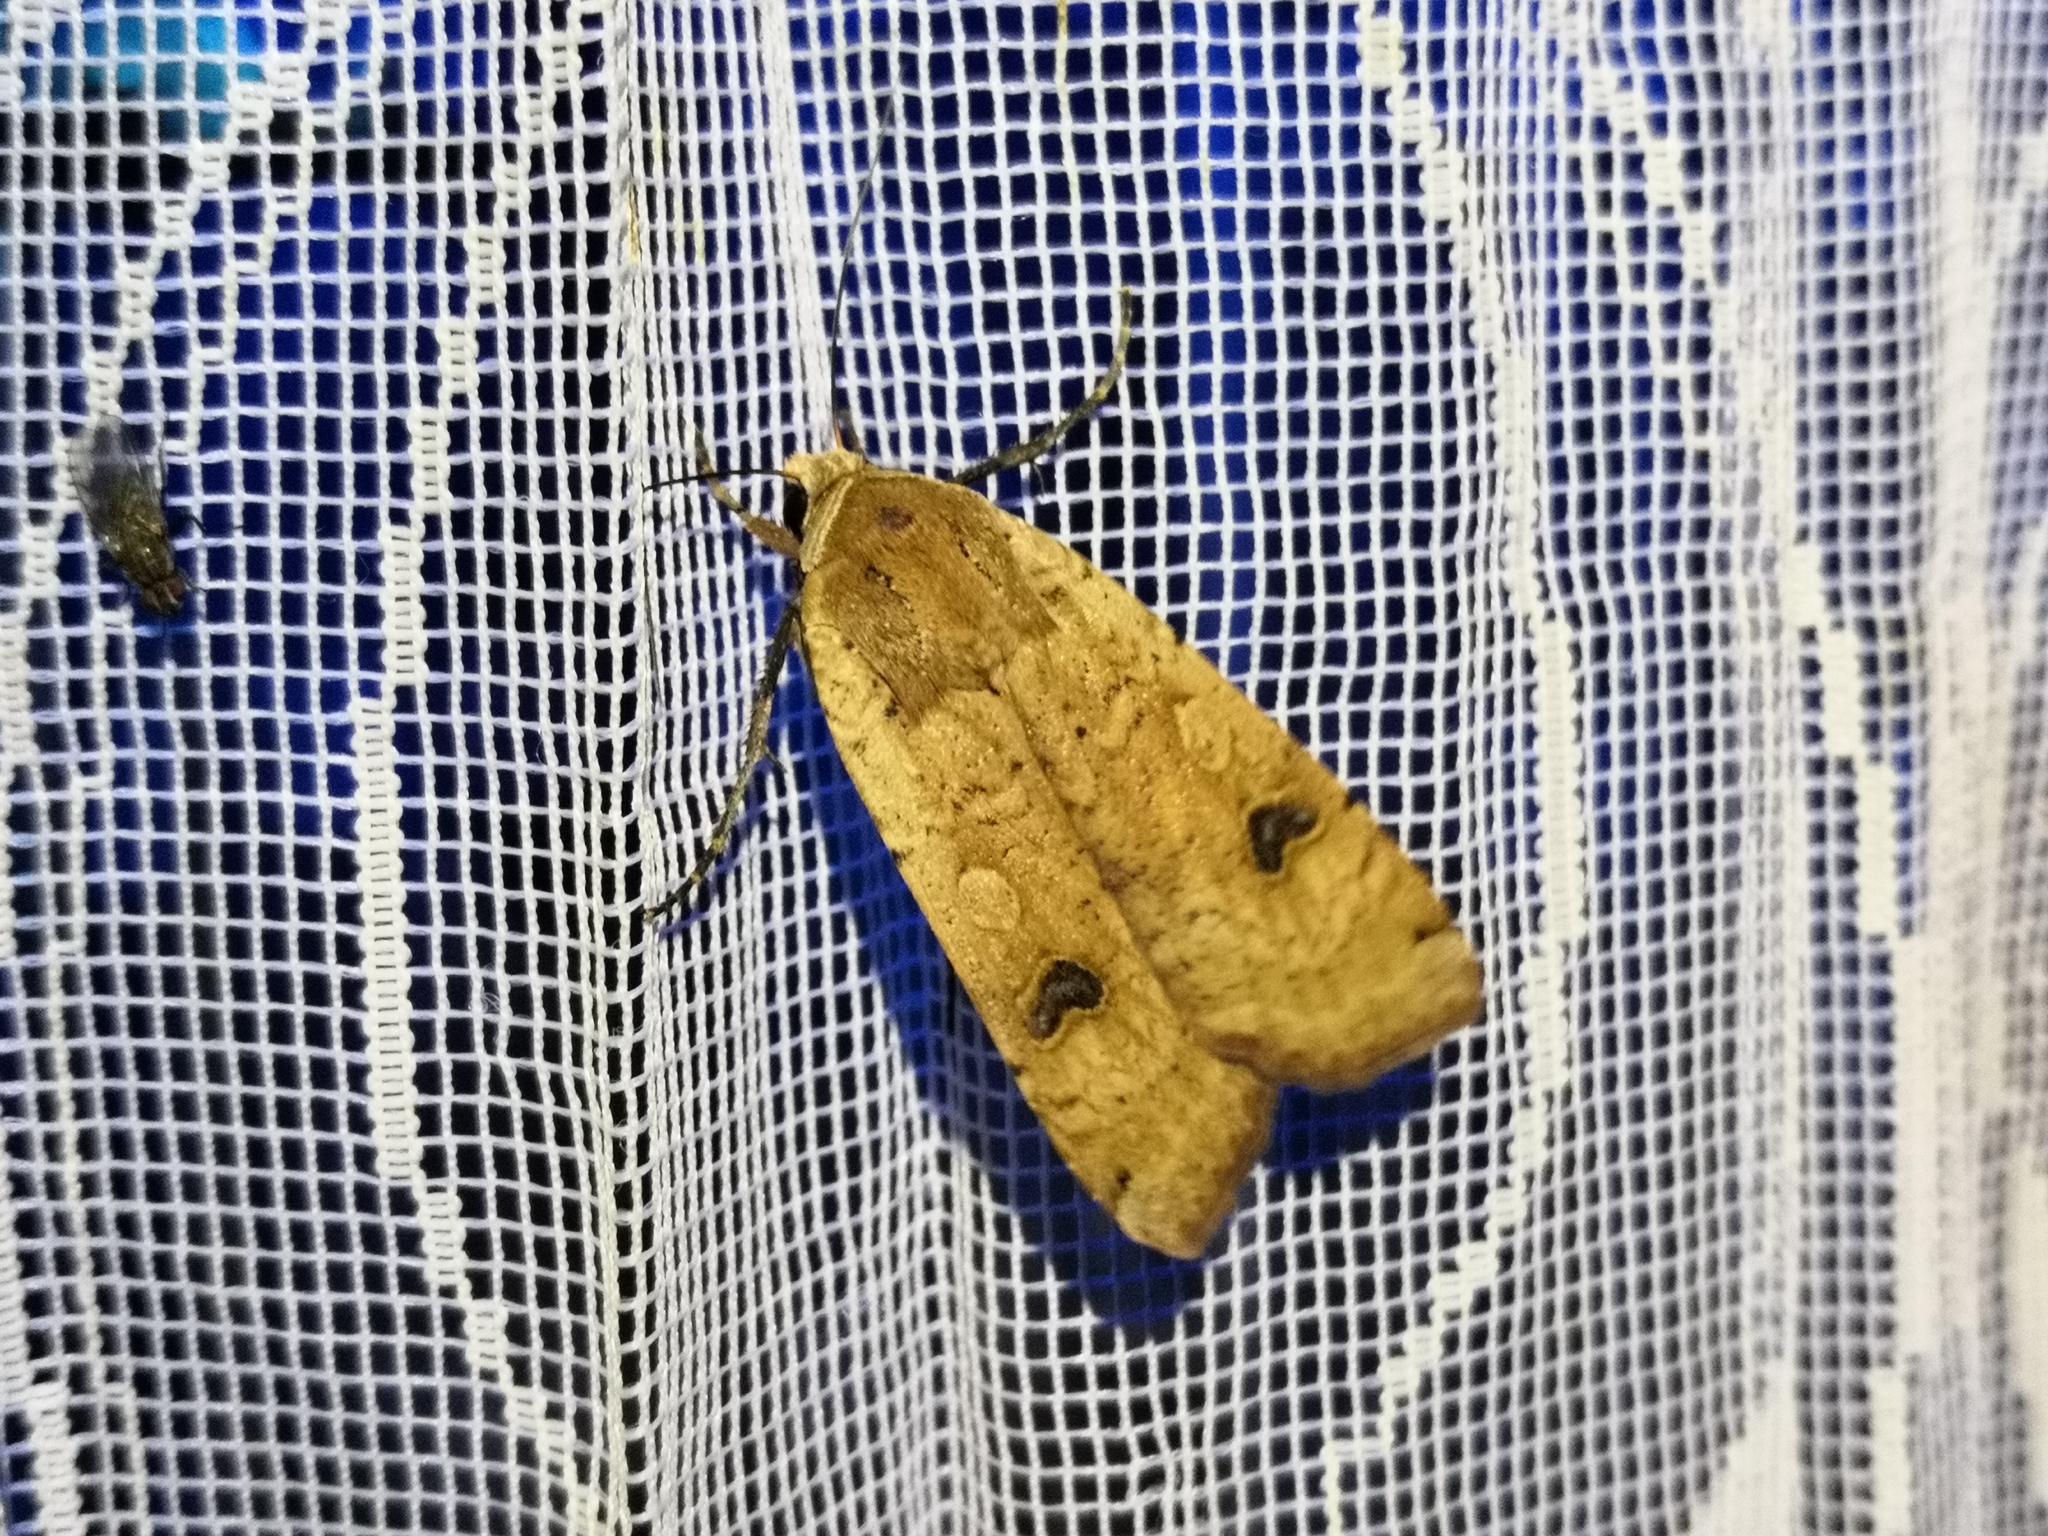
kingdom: Animalia
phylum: Arthropoda
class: Insecta
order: Lepidoptera
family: Noctuidae
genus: Noctua
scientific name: Noctua pronuba
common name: Large yellow underwing
